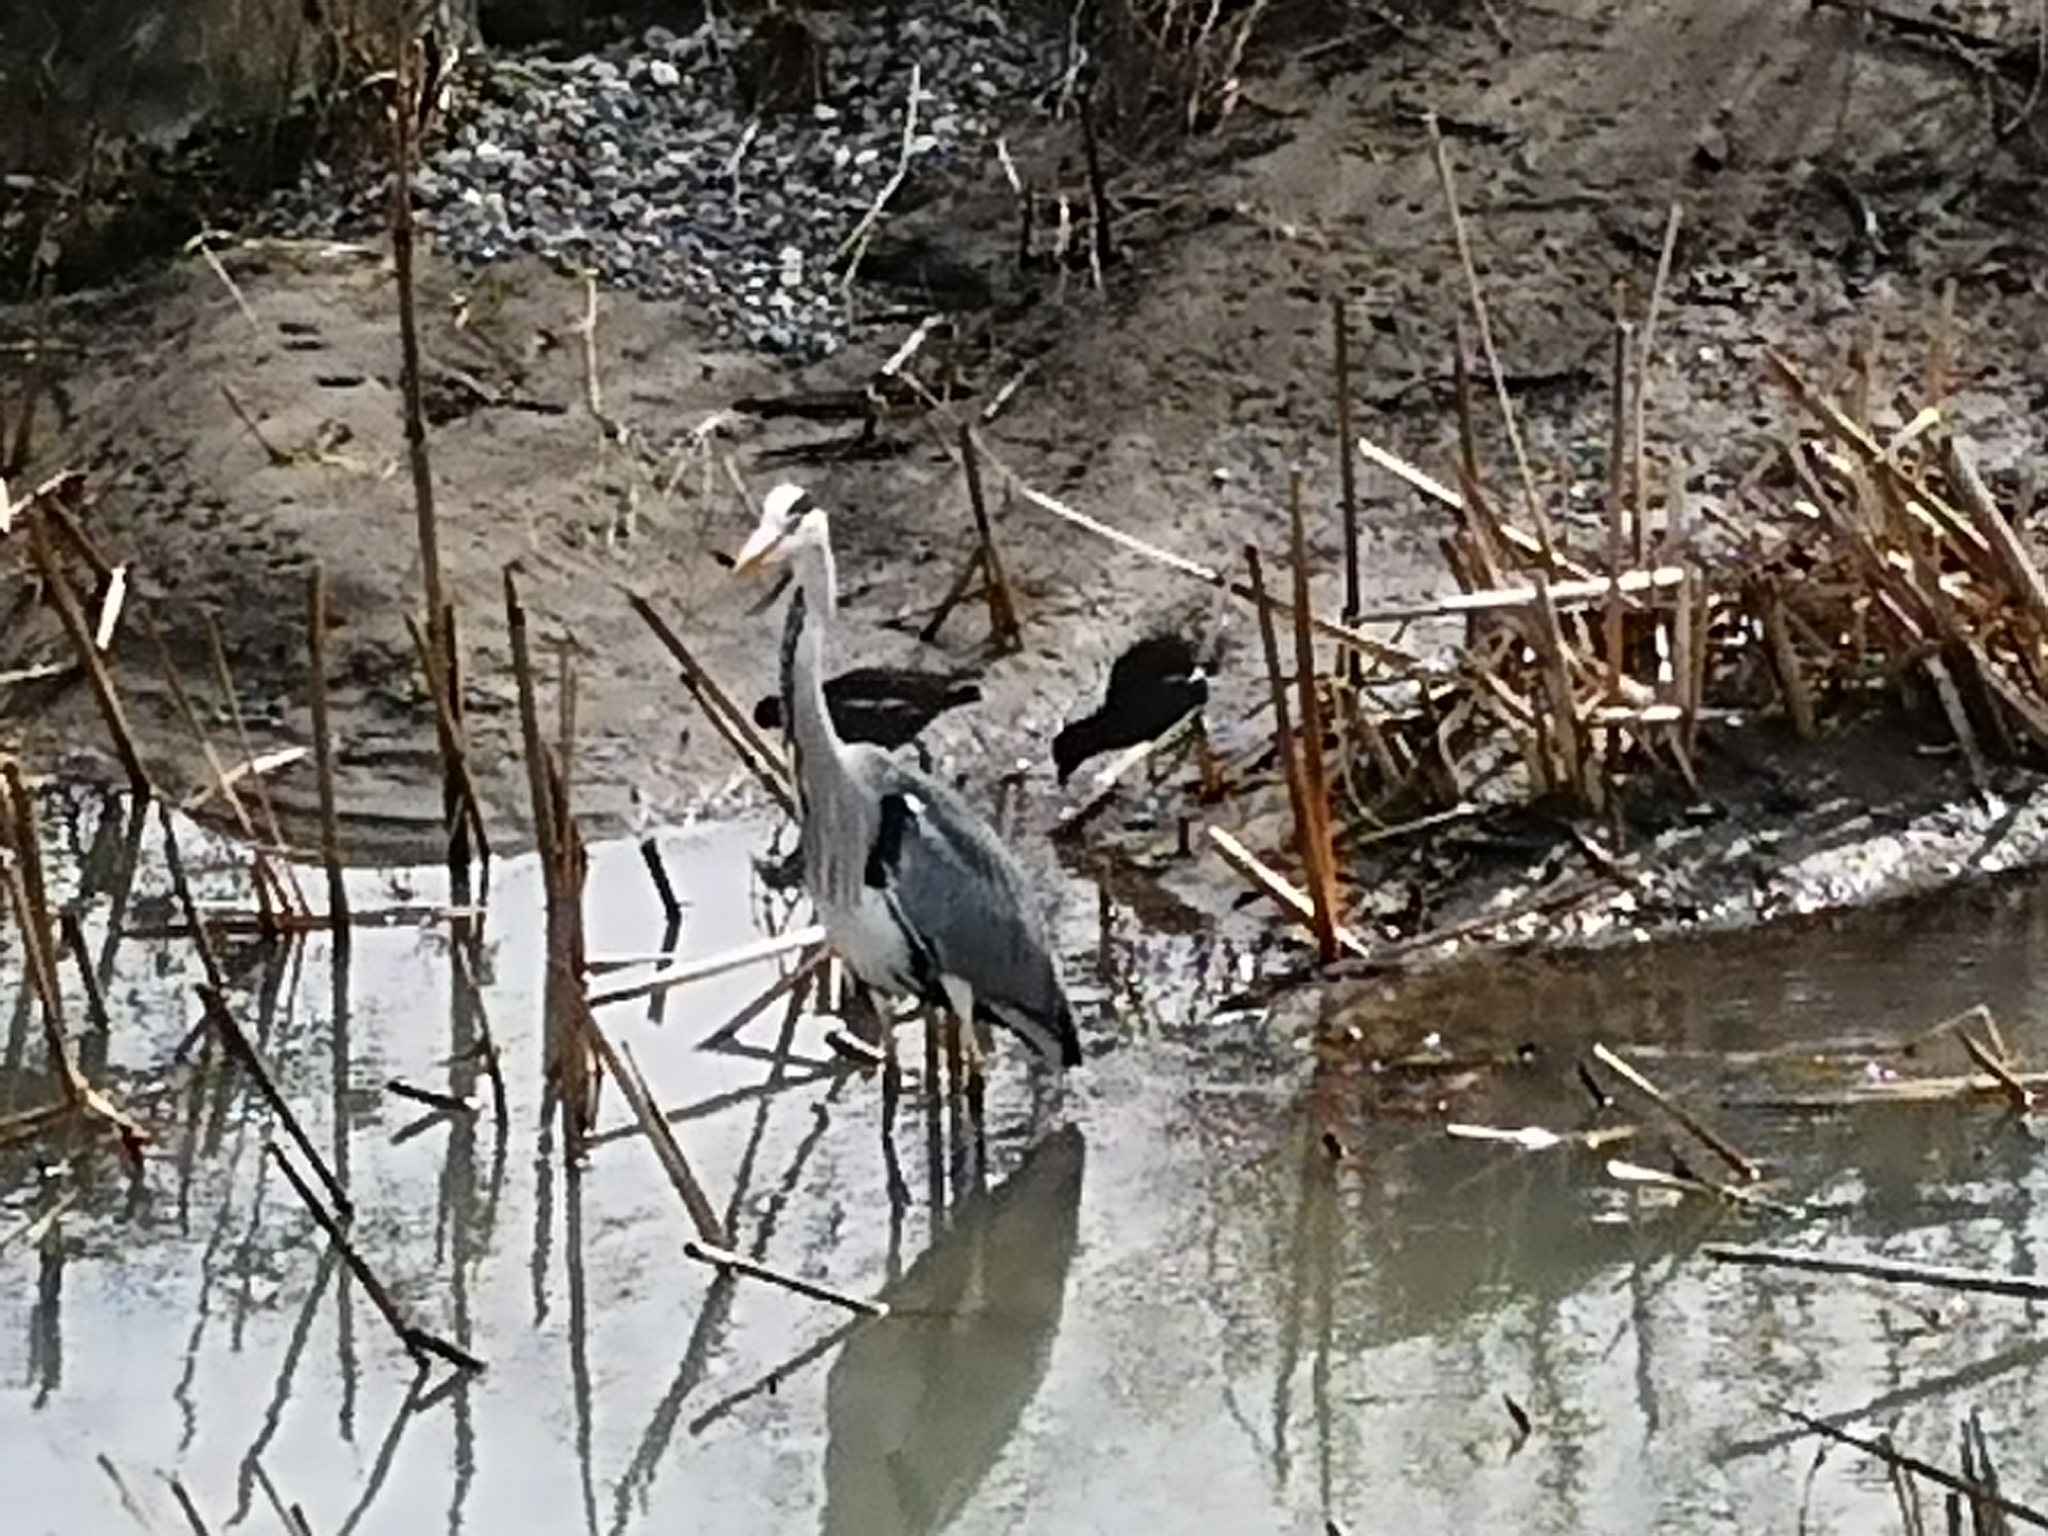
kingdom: Animalia
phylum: Chordata
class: Aves
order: Pelecaniformes
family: Ardeidae
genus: Ardea
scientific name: Ardea cinerea
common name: Grey heron
